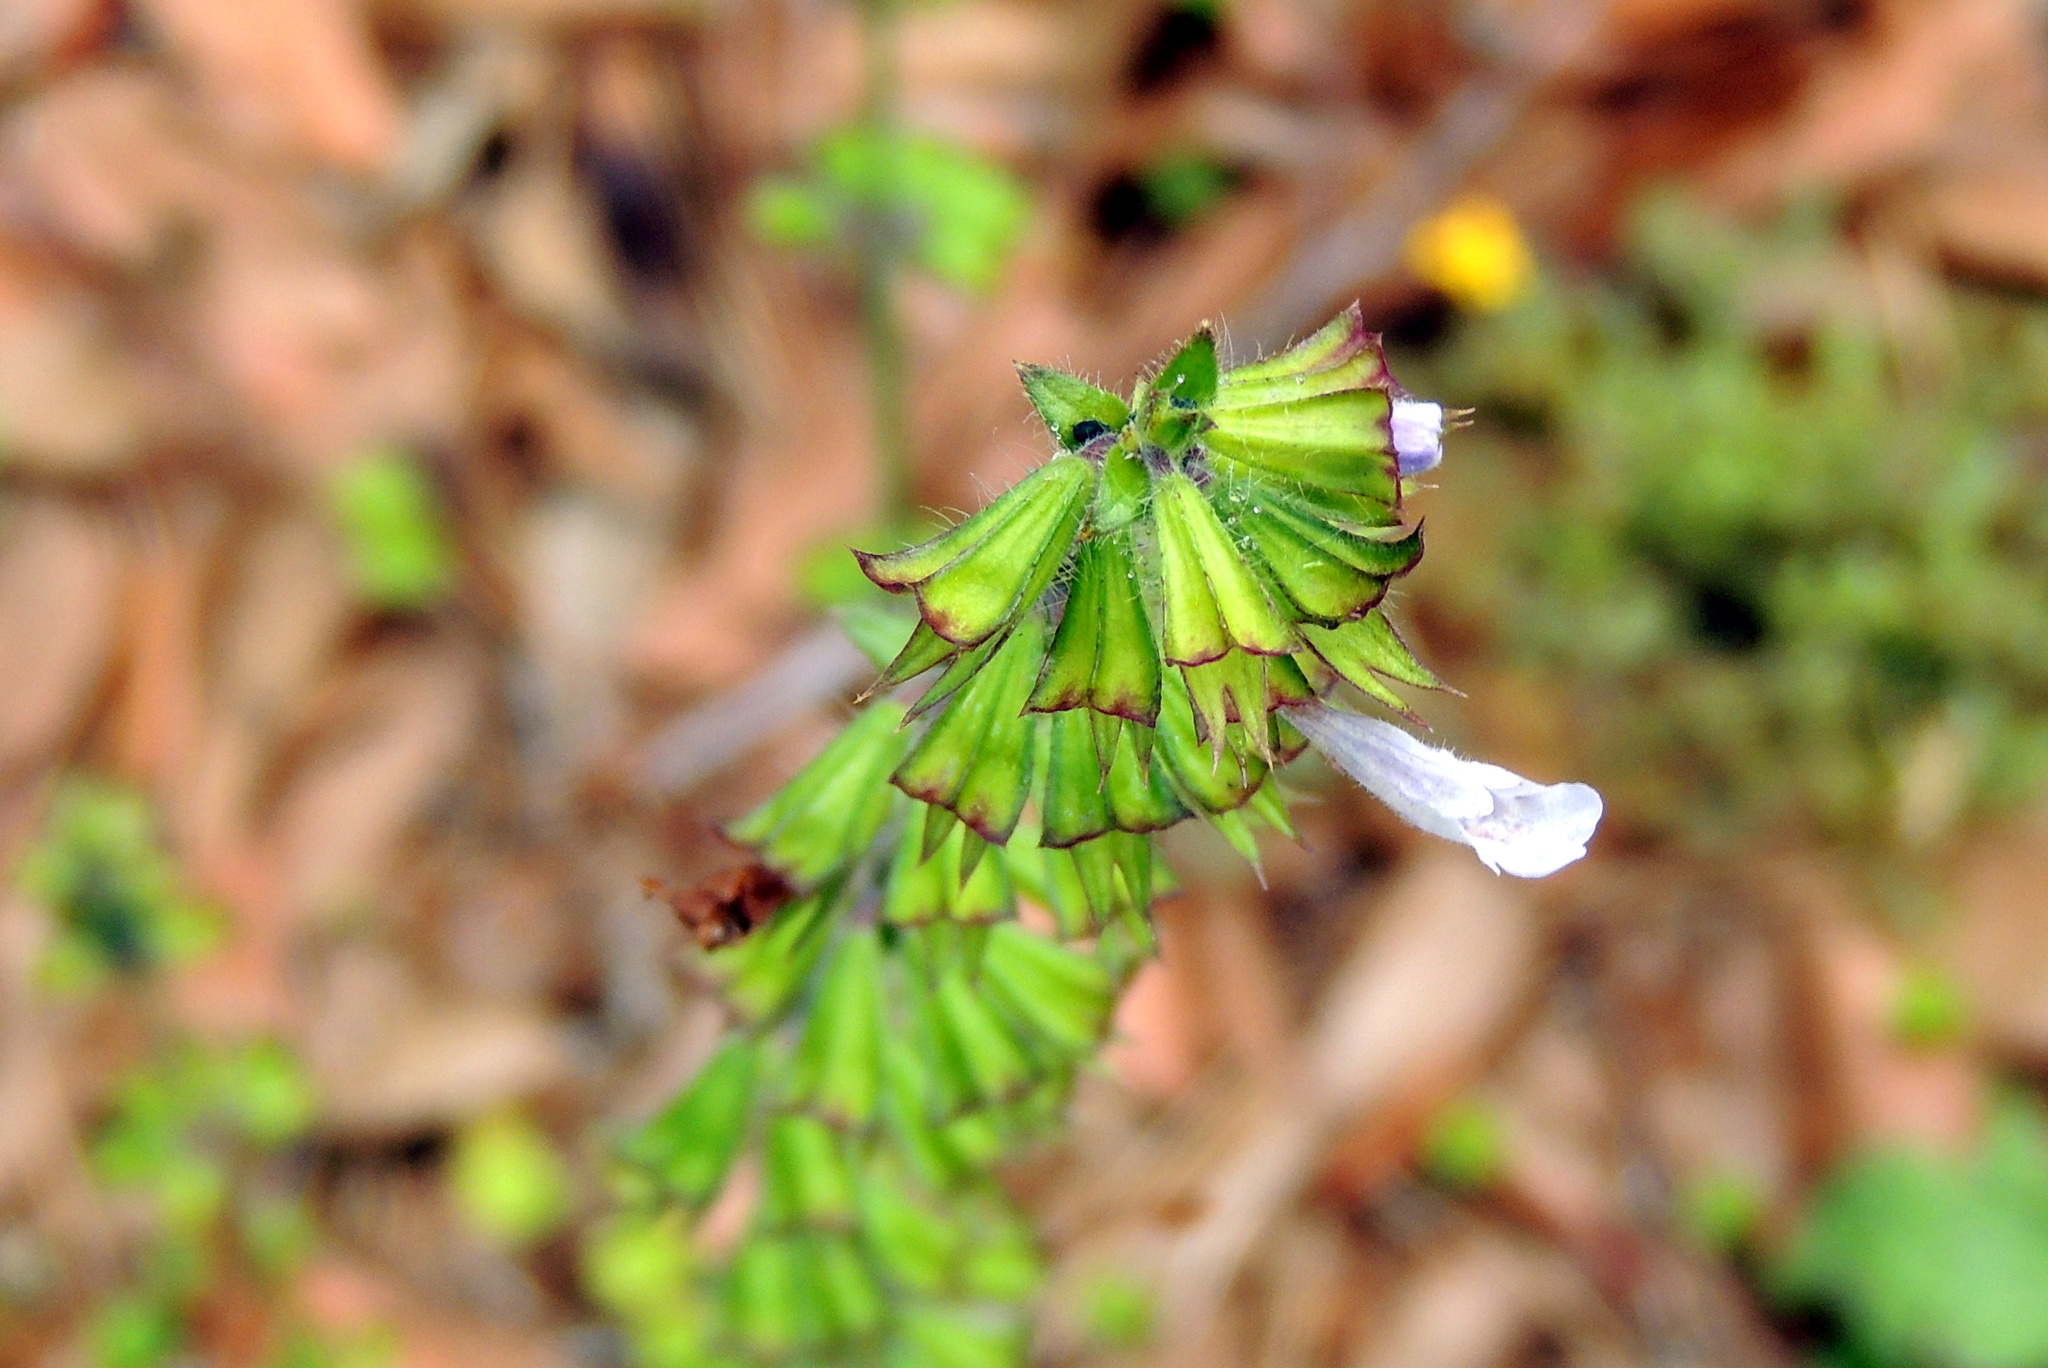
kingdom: Plantae
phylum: Tracheophyta
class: Magnoliopsida
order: Lamiales
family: Lamiaceae
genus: Salvia
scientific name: Salvia lyrata
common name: Cancerweed
